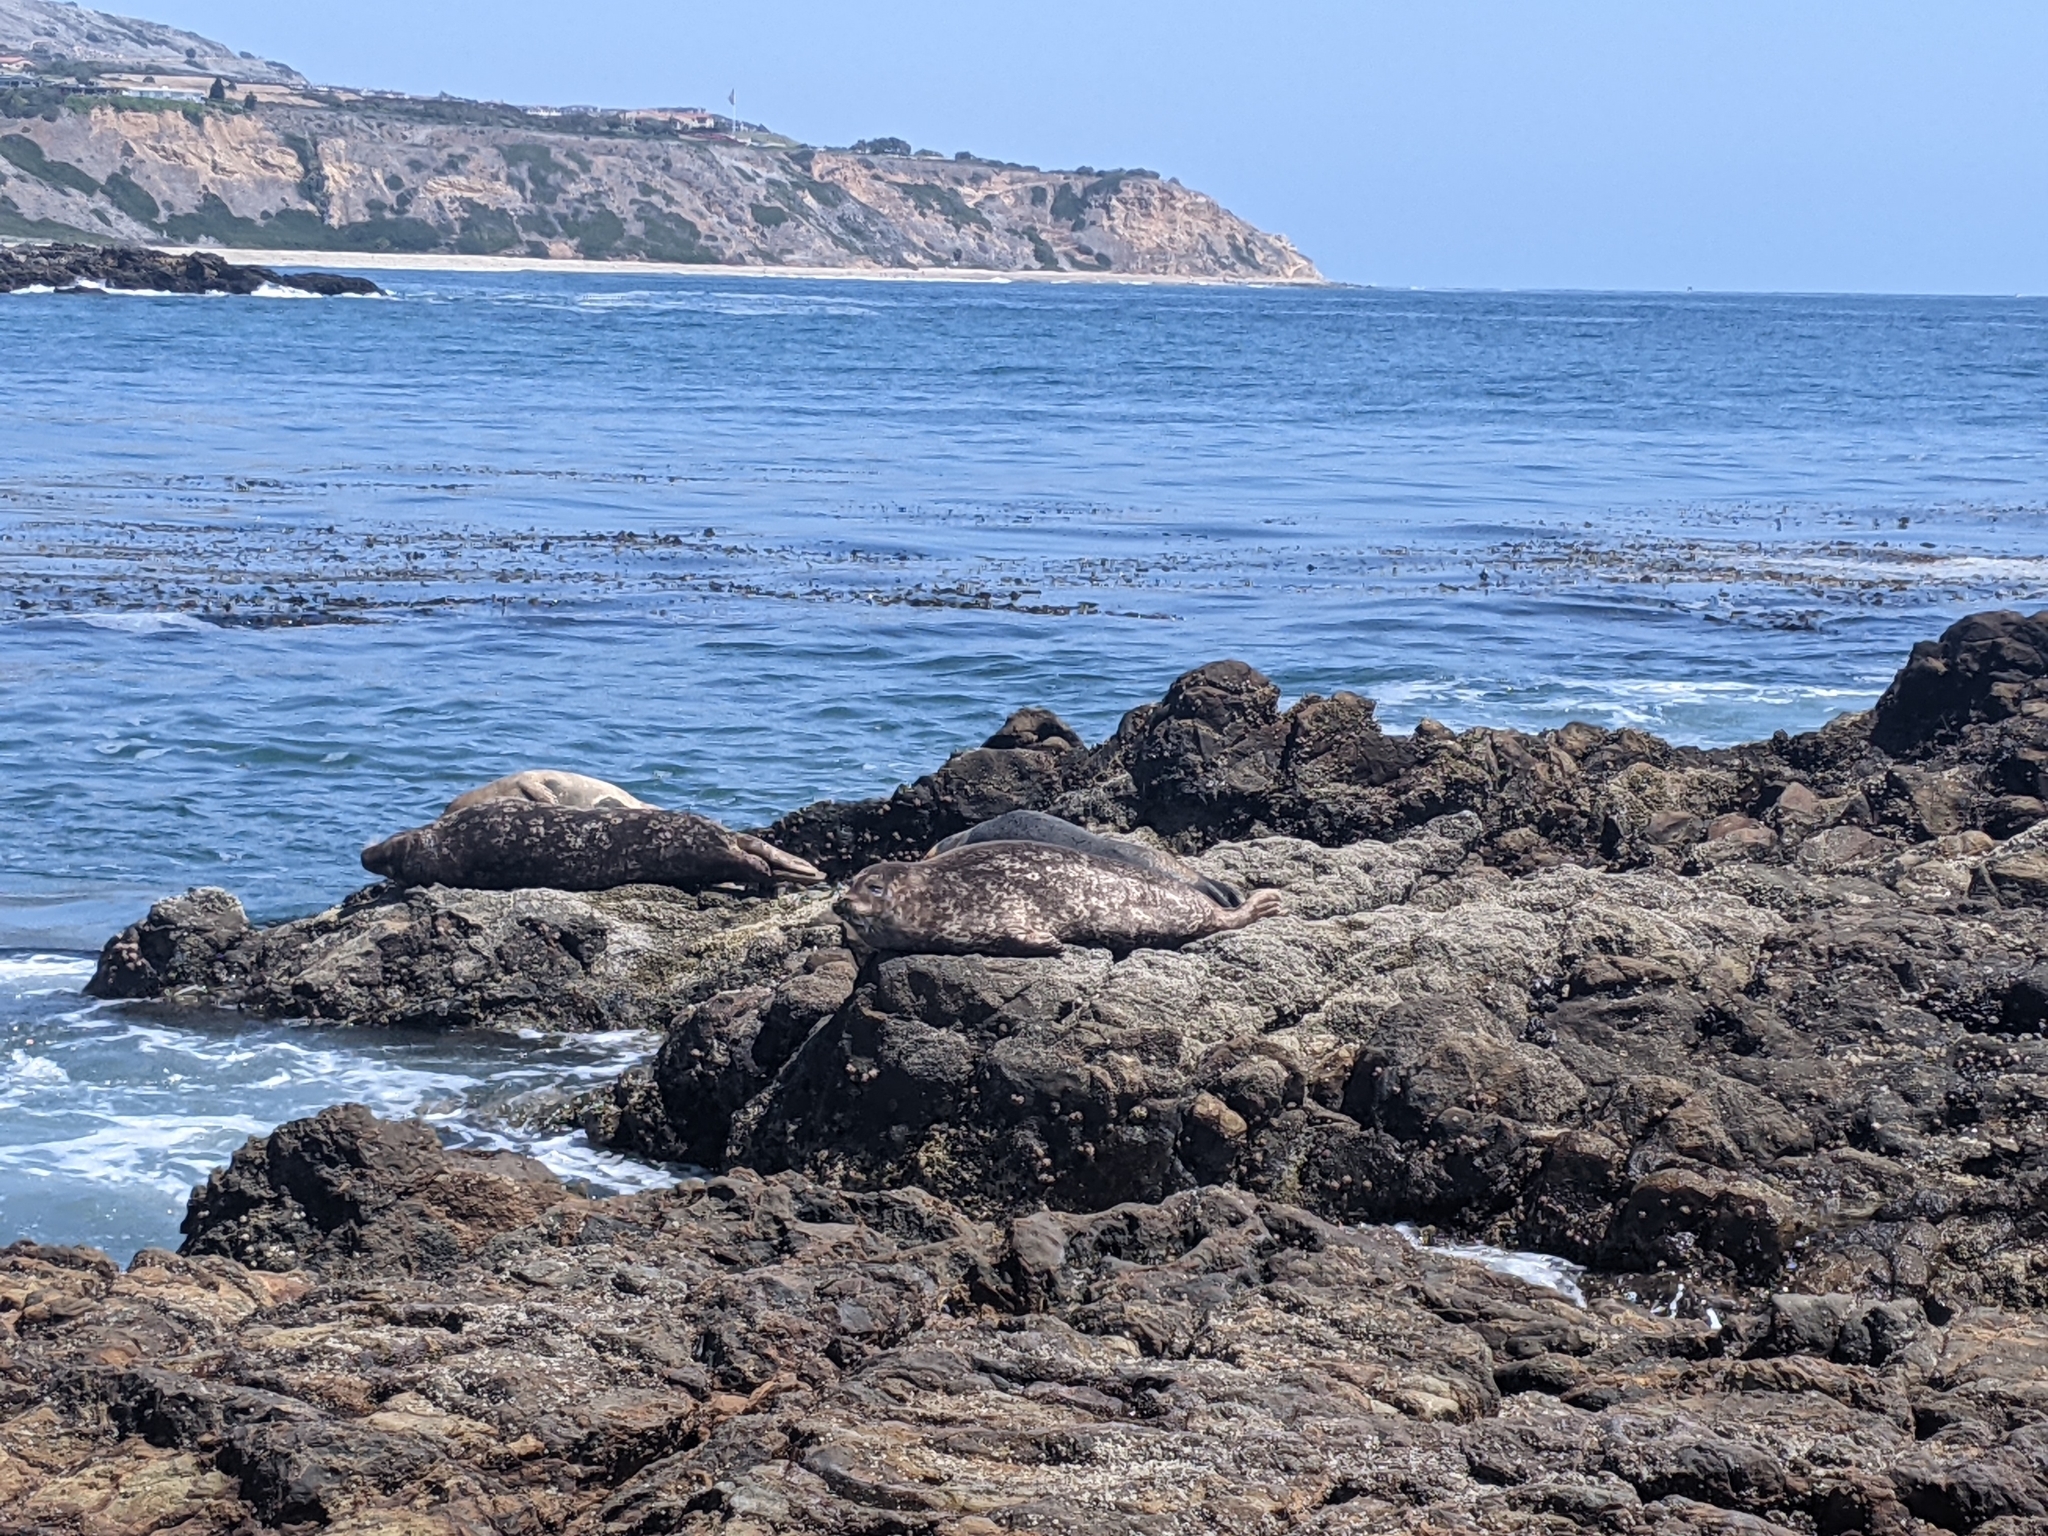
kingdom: Animalia
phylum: Chordata
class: Mammalia
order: Carnivora
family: Phocidae
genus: Phoca
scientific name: Phoca vitulina
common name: Harbor seal
